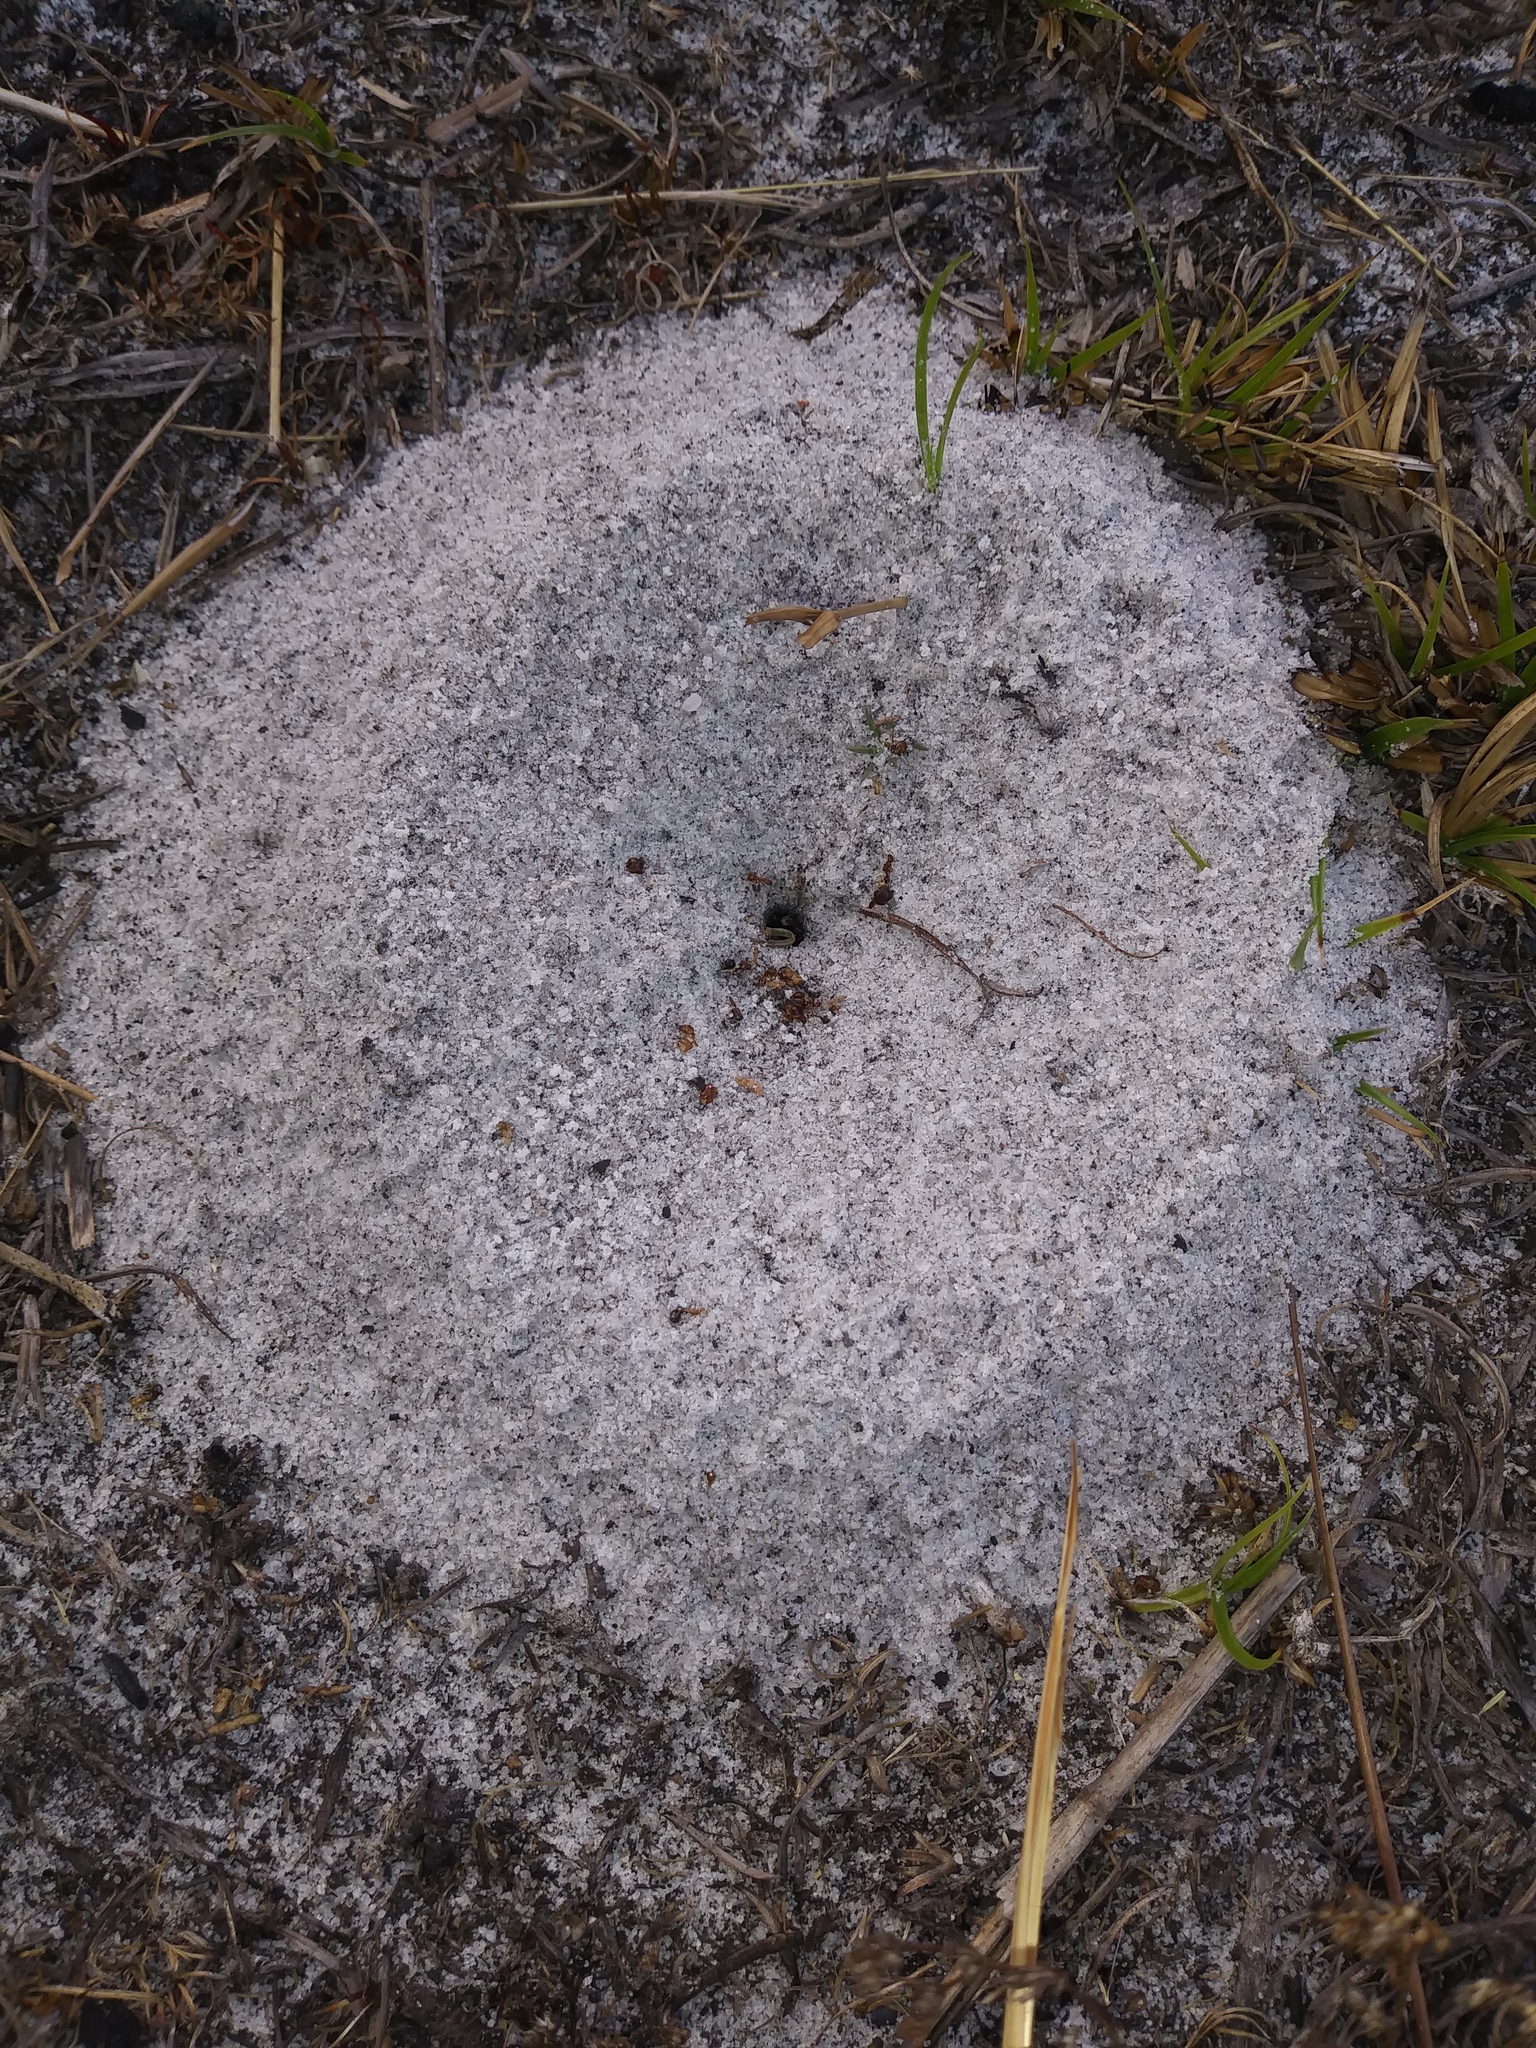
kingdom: Animalia
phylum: Arthropoda
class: Insecta
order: Hymenoptera
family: Formicidae
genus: Dorymyrmex
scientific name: Dorymyrmex bureni
